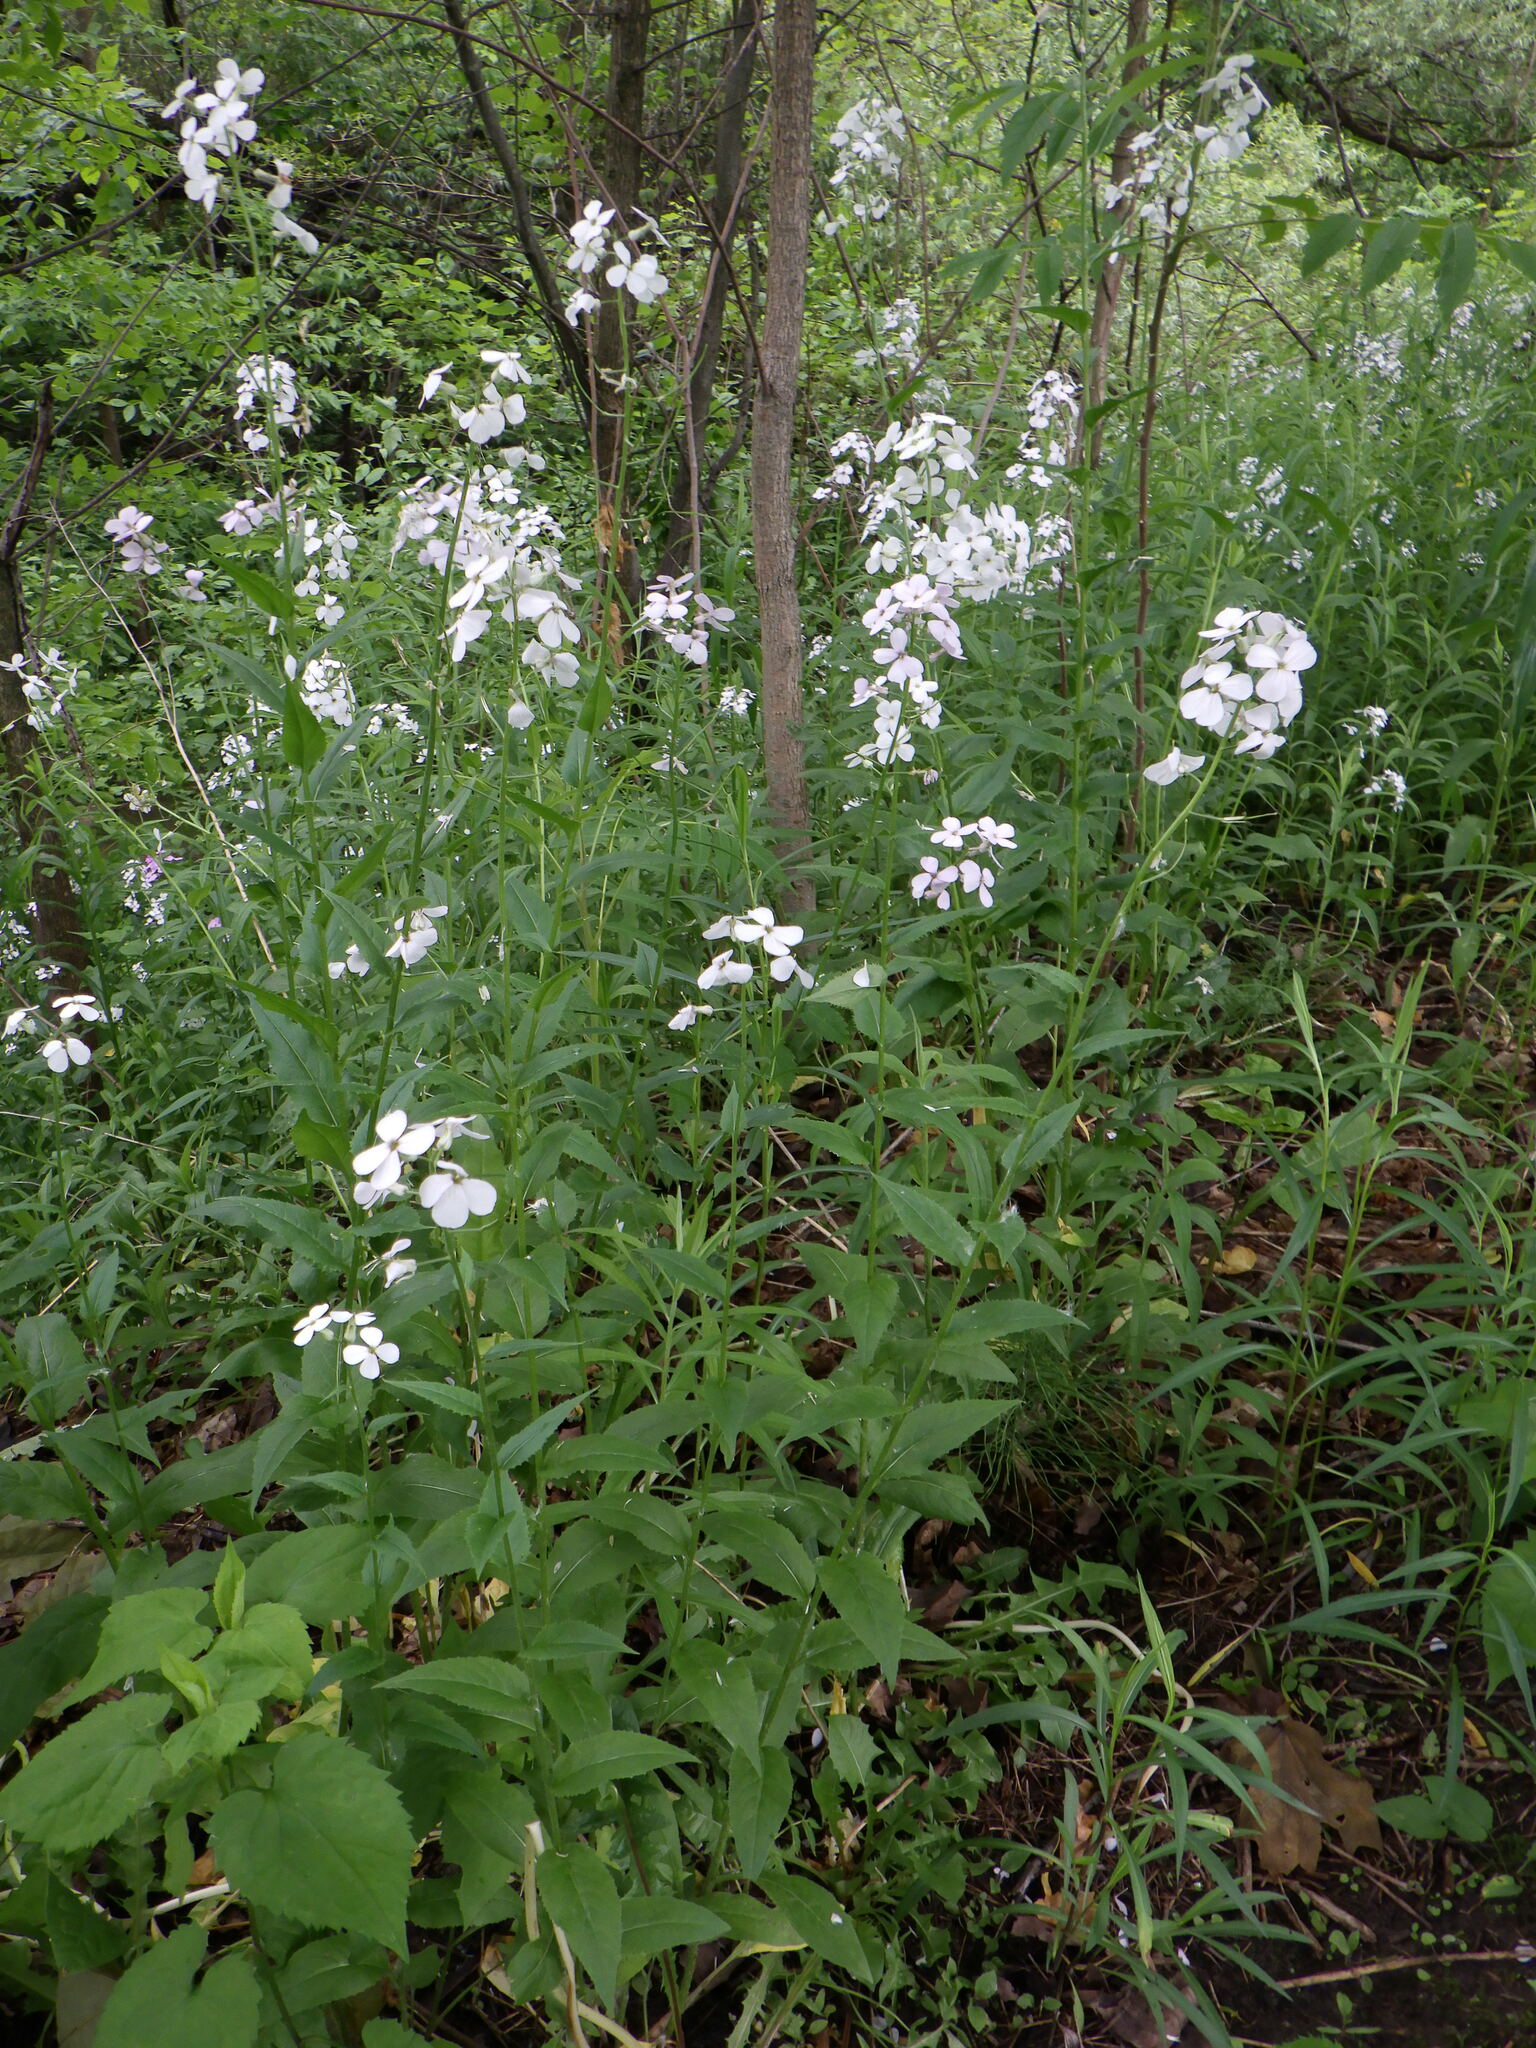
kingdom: Plantae
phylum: Tracheophyta
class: Magnoliopsida
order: Brassicales
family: Brassicaceae
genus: Hesperis
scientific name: Hesperis matronalis
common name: Dame's-violet
